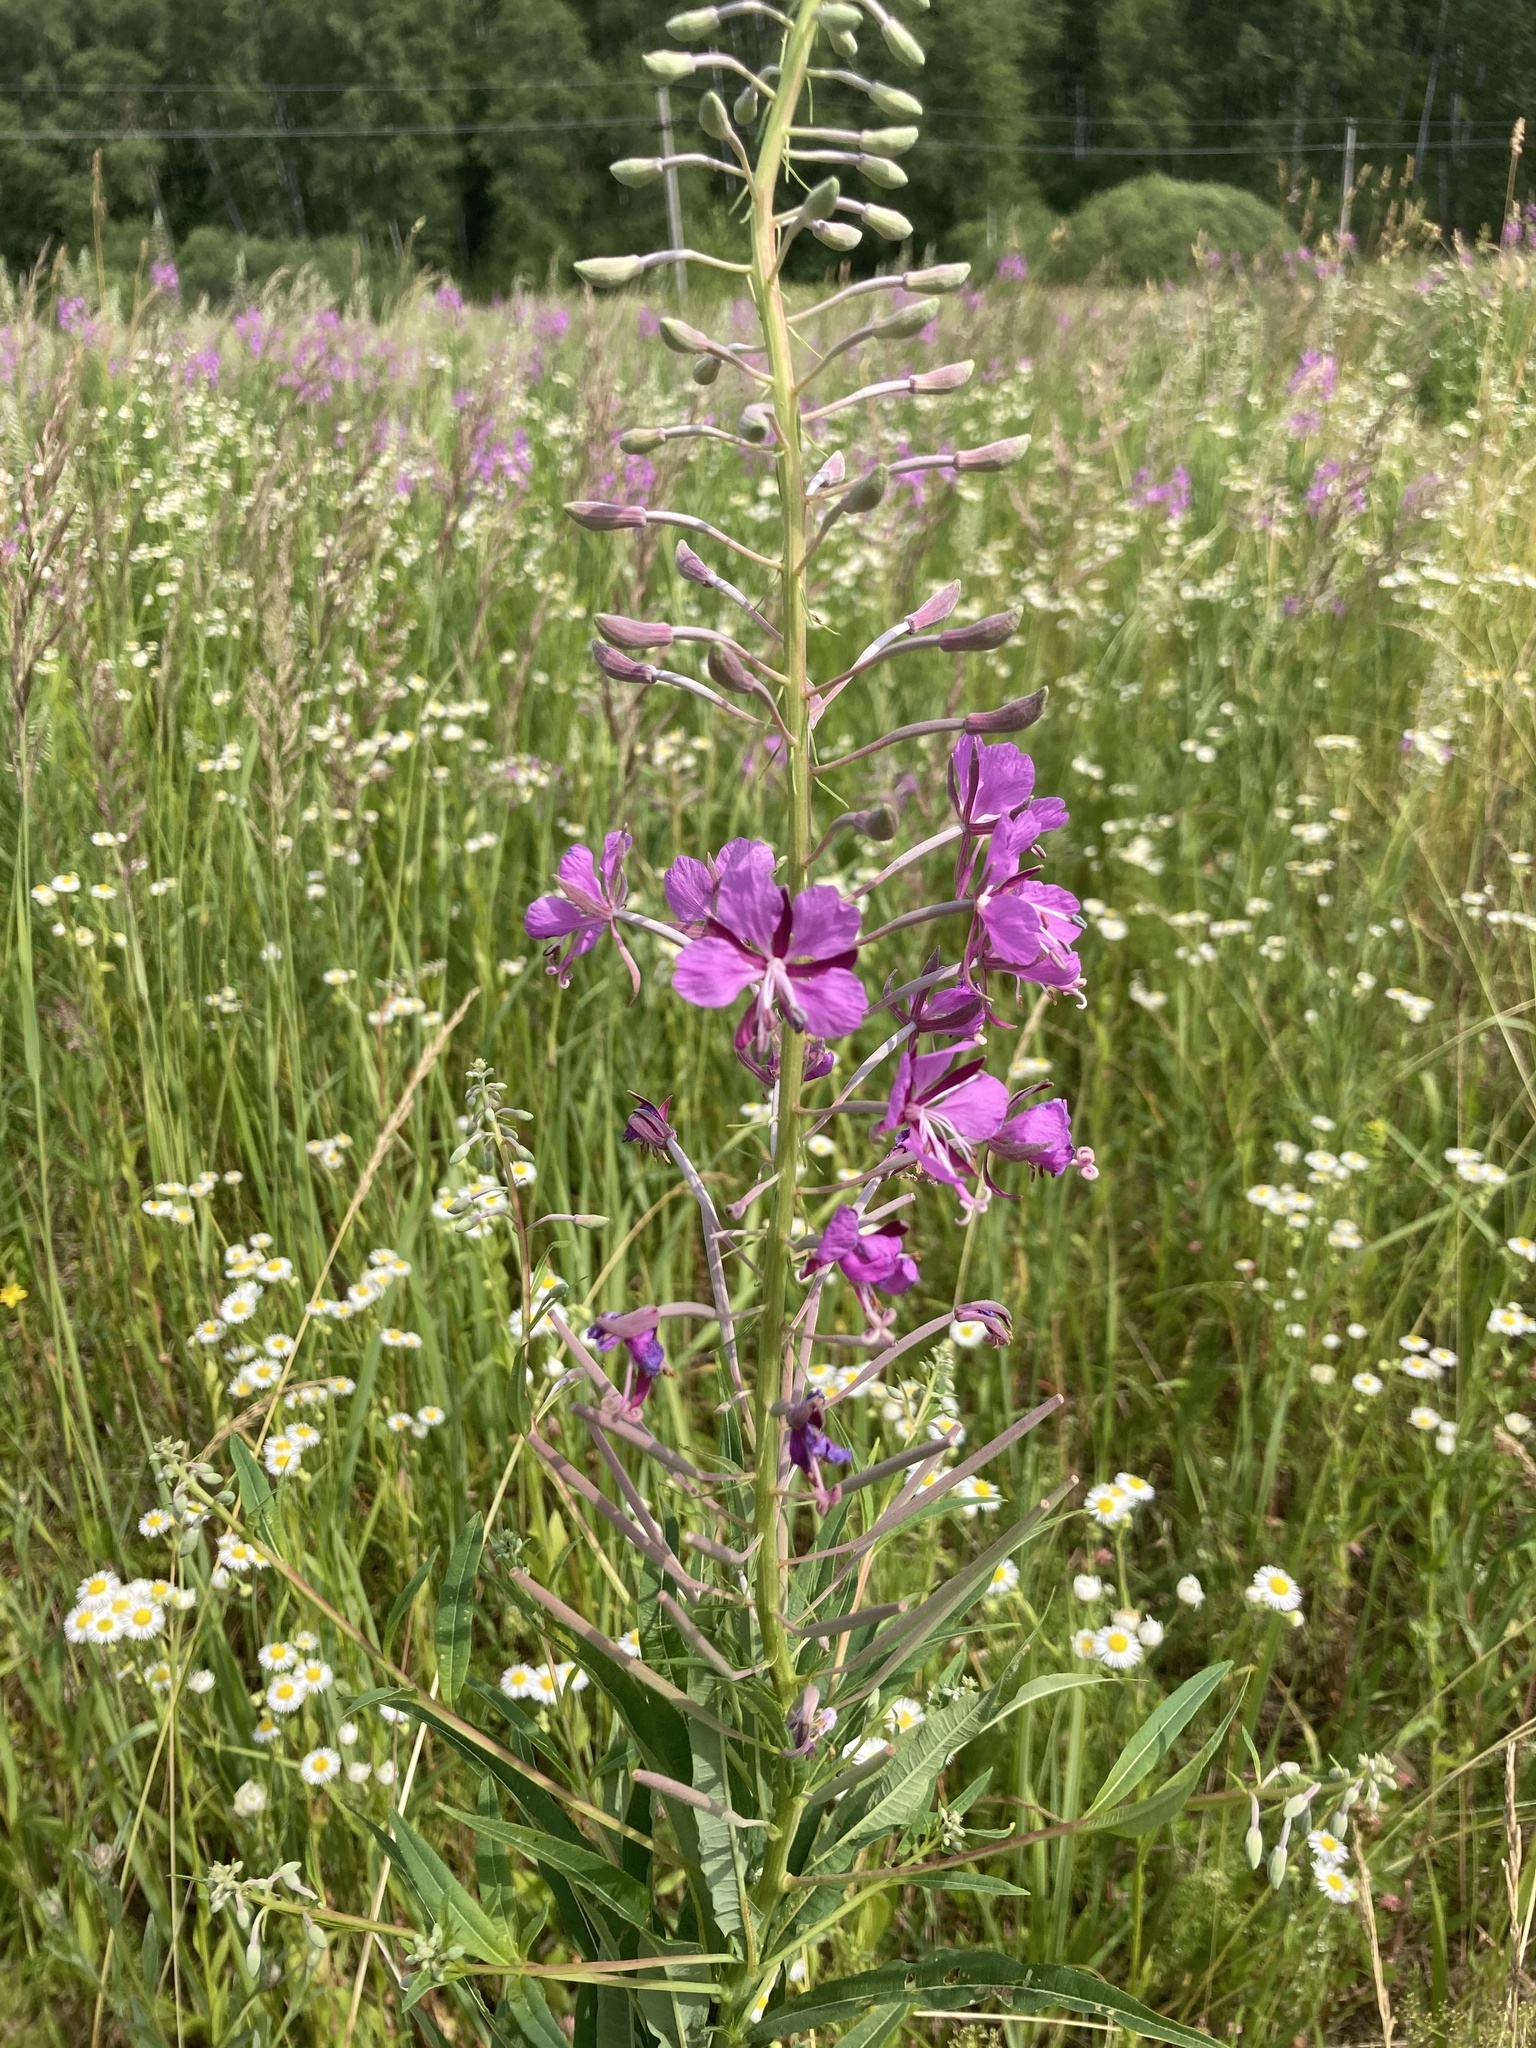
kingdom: Plantae
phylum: Tracheophyta
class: Magnoliopsida
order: Myrtales
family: Onagraceae
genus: Chamaenerion
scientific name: Chamaenerion angustifolium
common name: Fireweed
